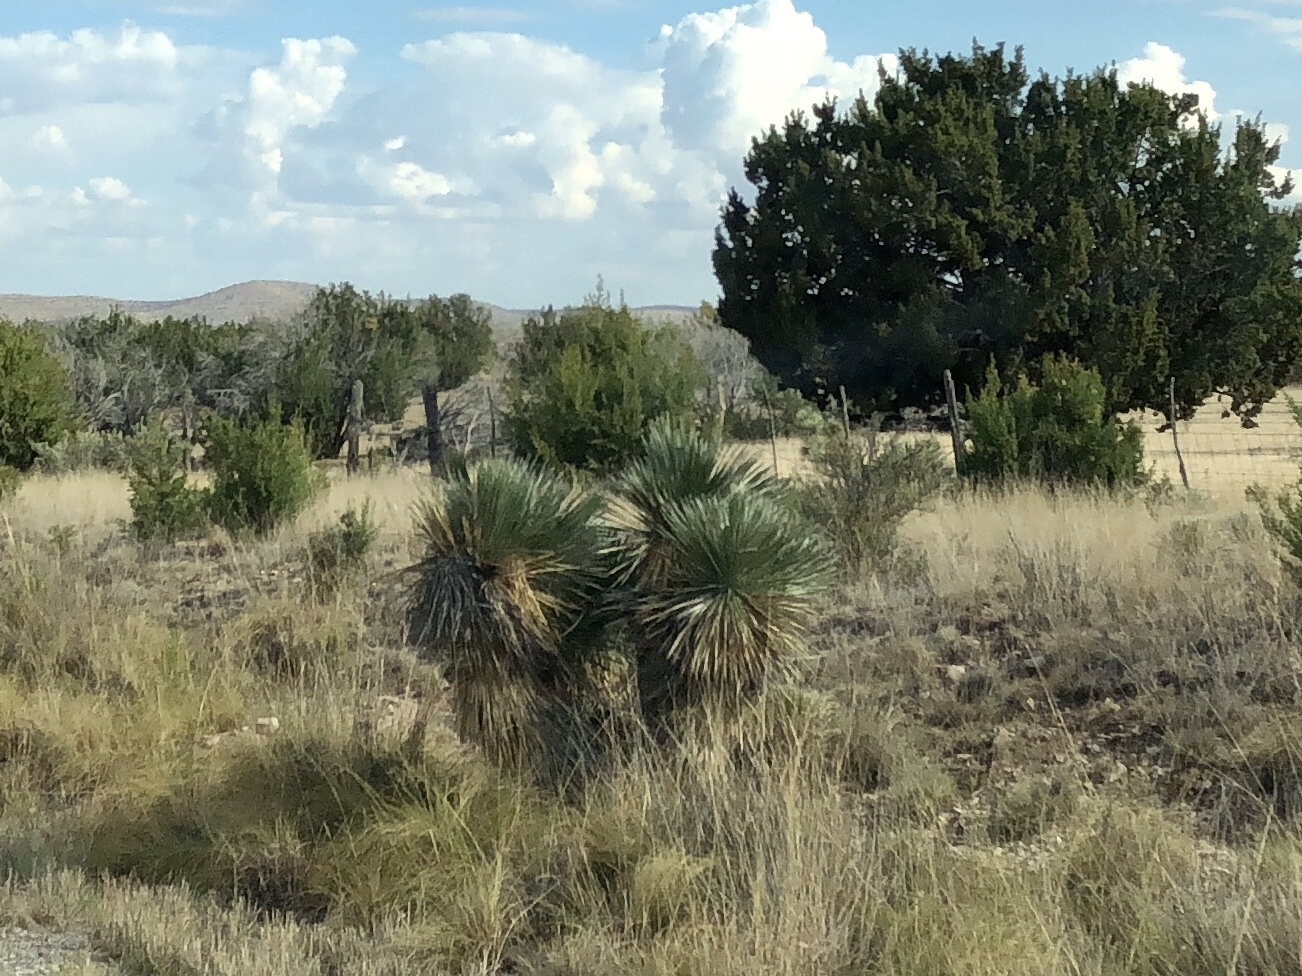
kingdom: Plantae
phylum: Tracheophyta
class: Liliopsida
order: Asparagales
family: Asparagaceae
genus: Yucca
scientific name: Yucca elata
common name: Palmella
